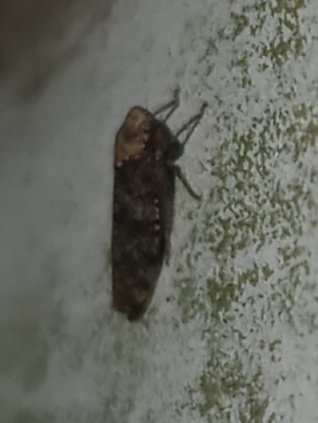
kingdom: Animalia
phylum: Arthropoda
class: Insecta
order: Hemiptera
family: Cicadellidae
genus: Paraphlepsius
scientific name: Paraphlepsius collitus
